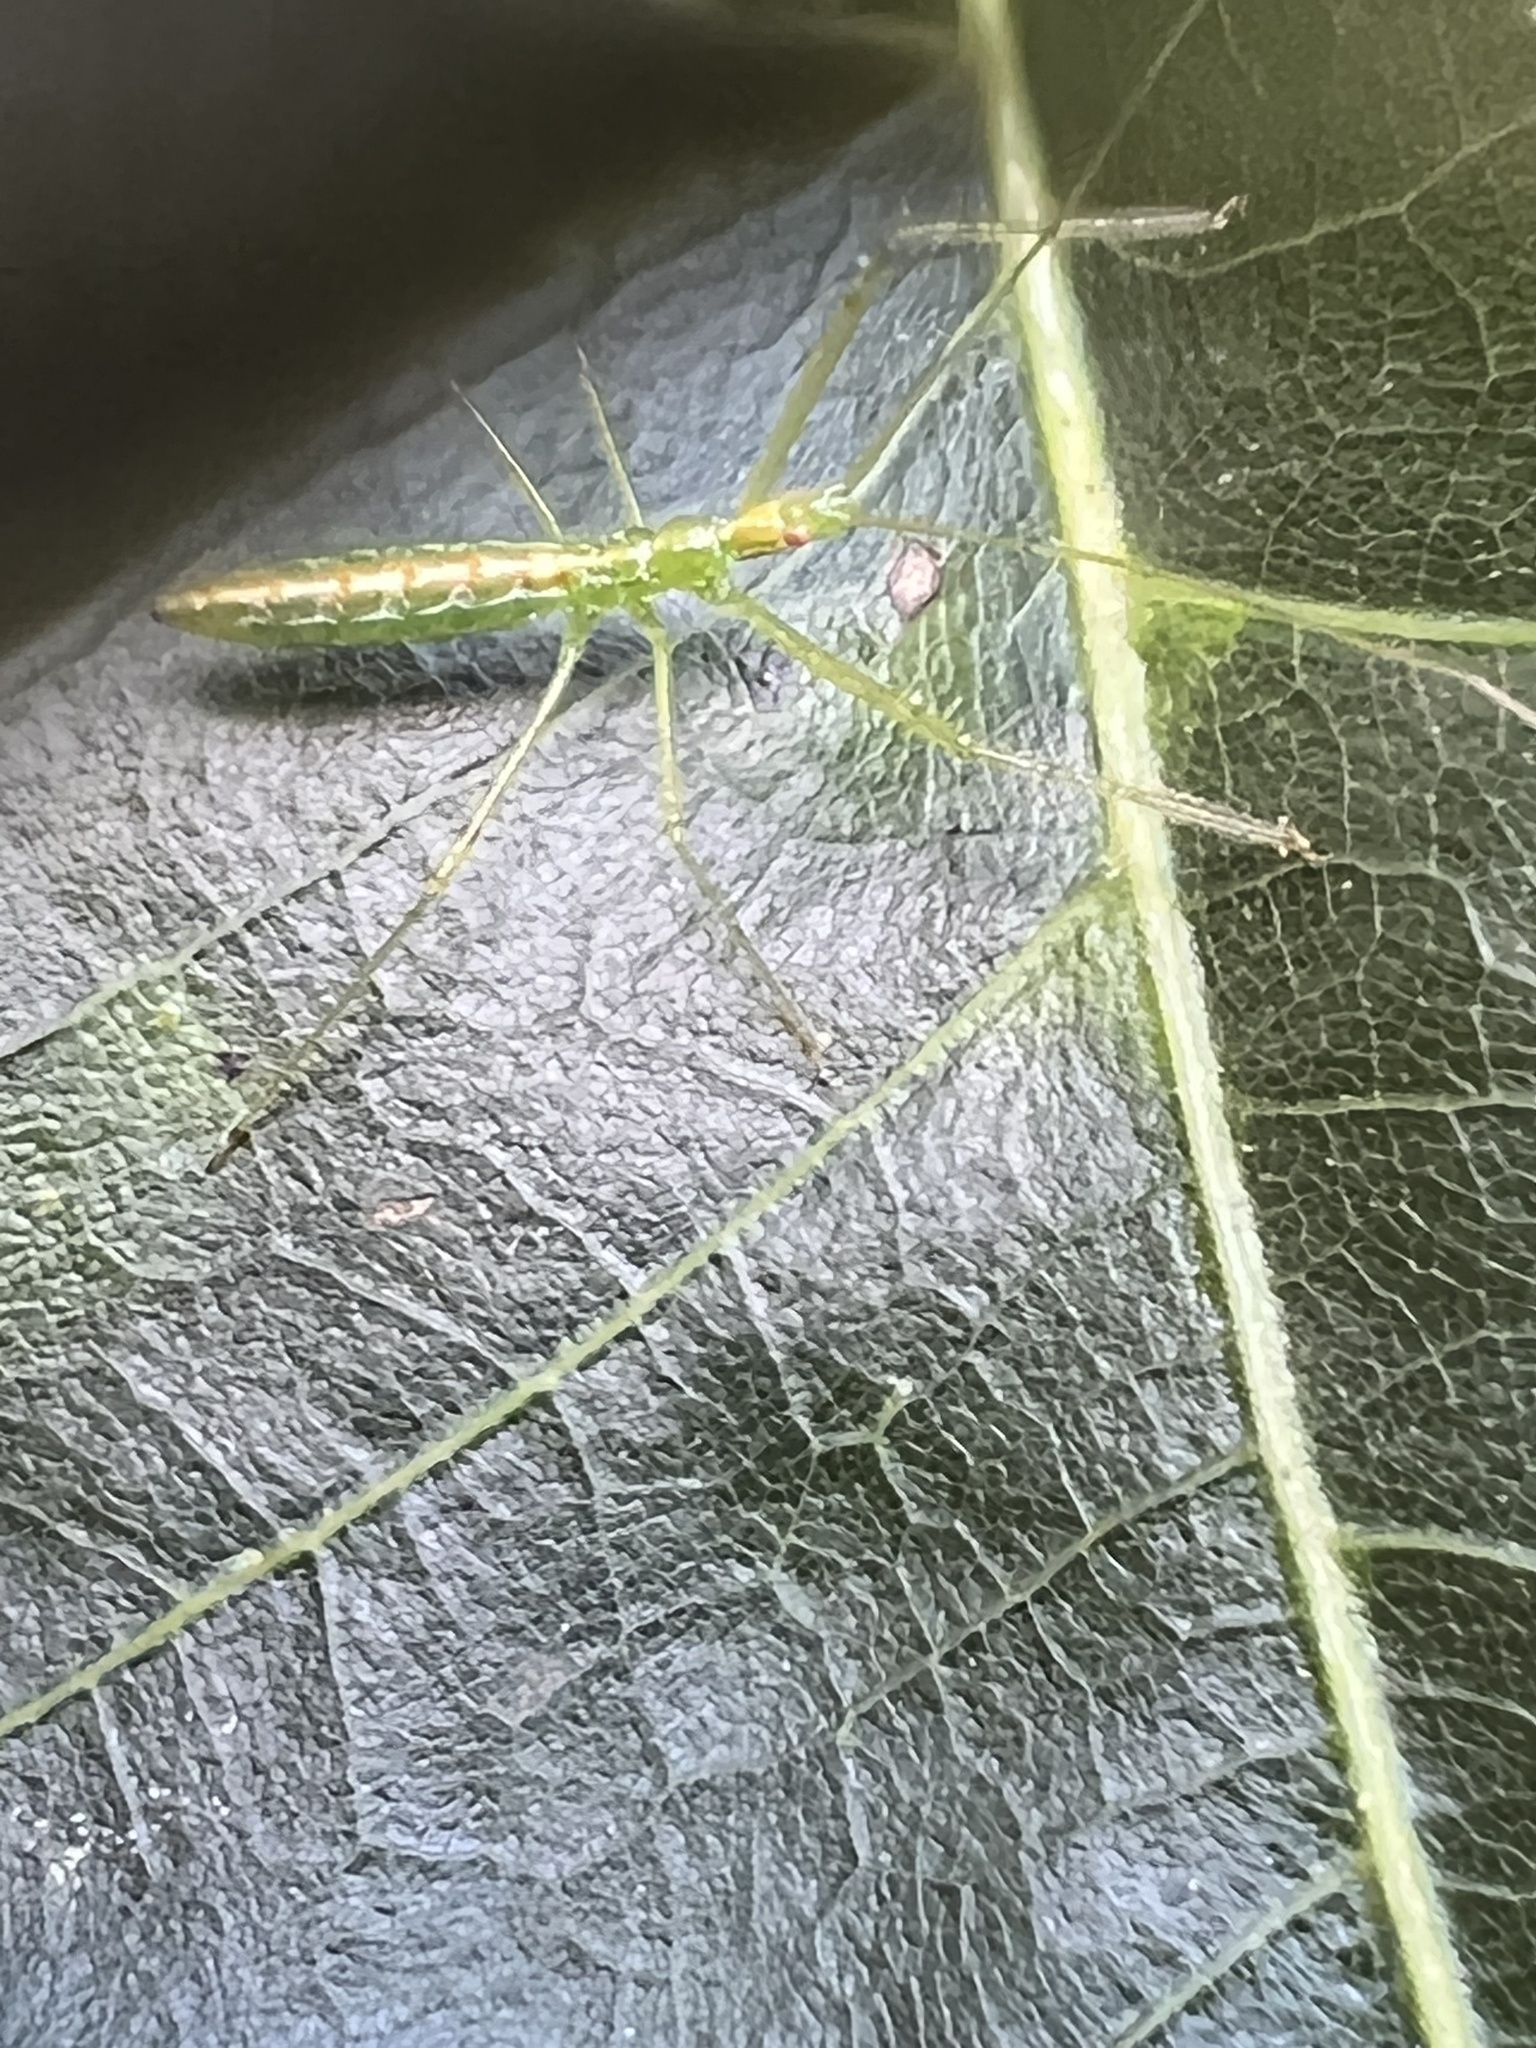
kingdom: Animalia
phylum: Arthropoda
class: Insecta
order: Hemiptera
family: Reduviidae
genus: Zelus
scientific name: Zelus luridus
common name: Pale green assassin bug
